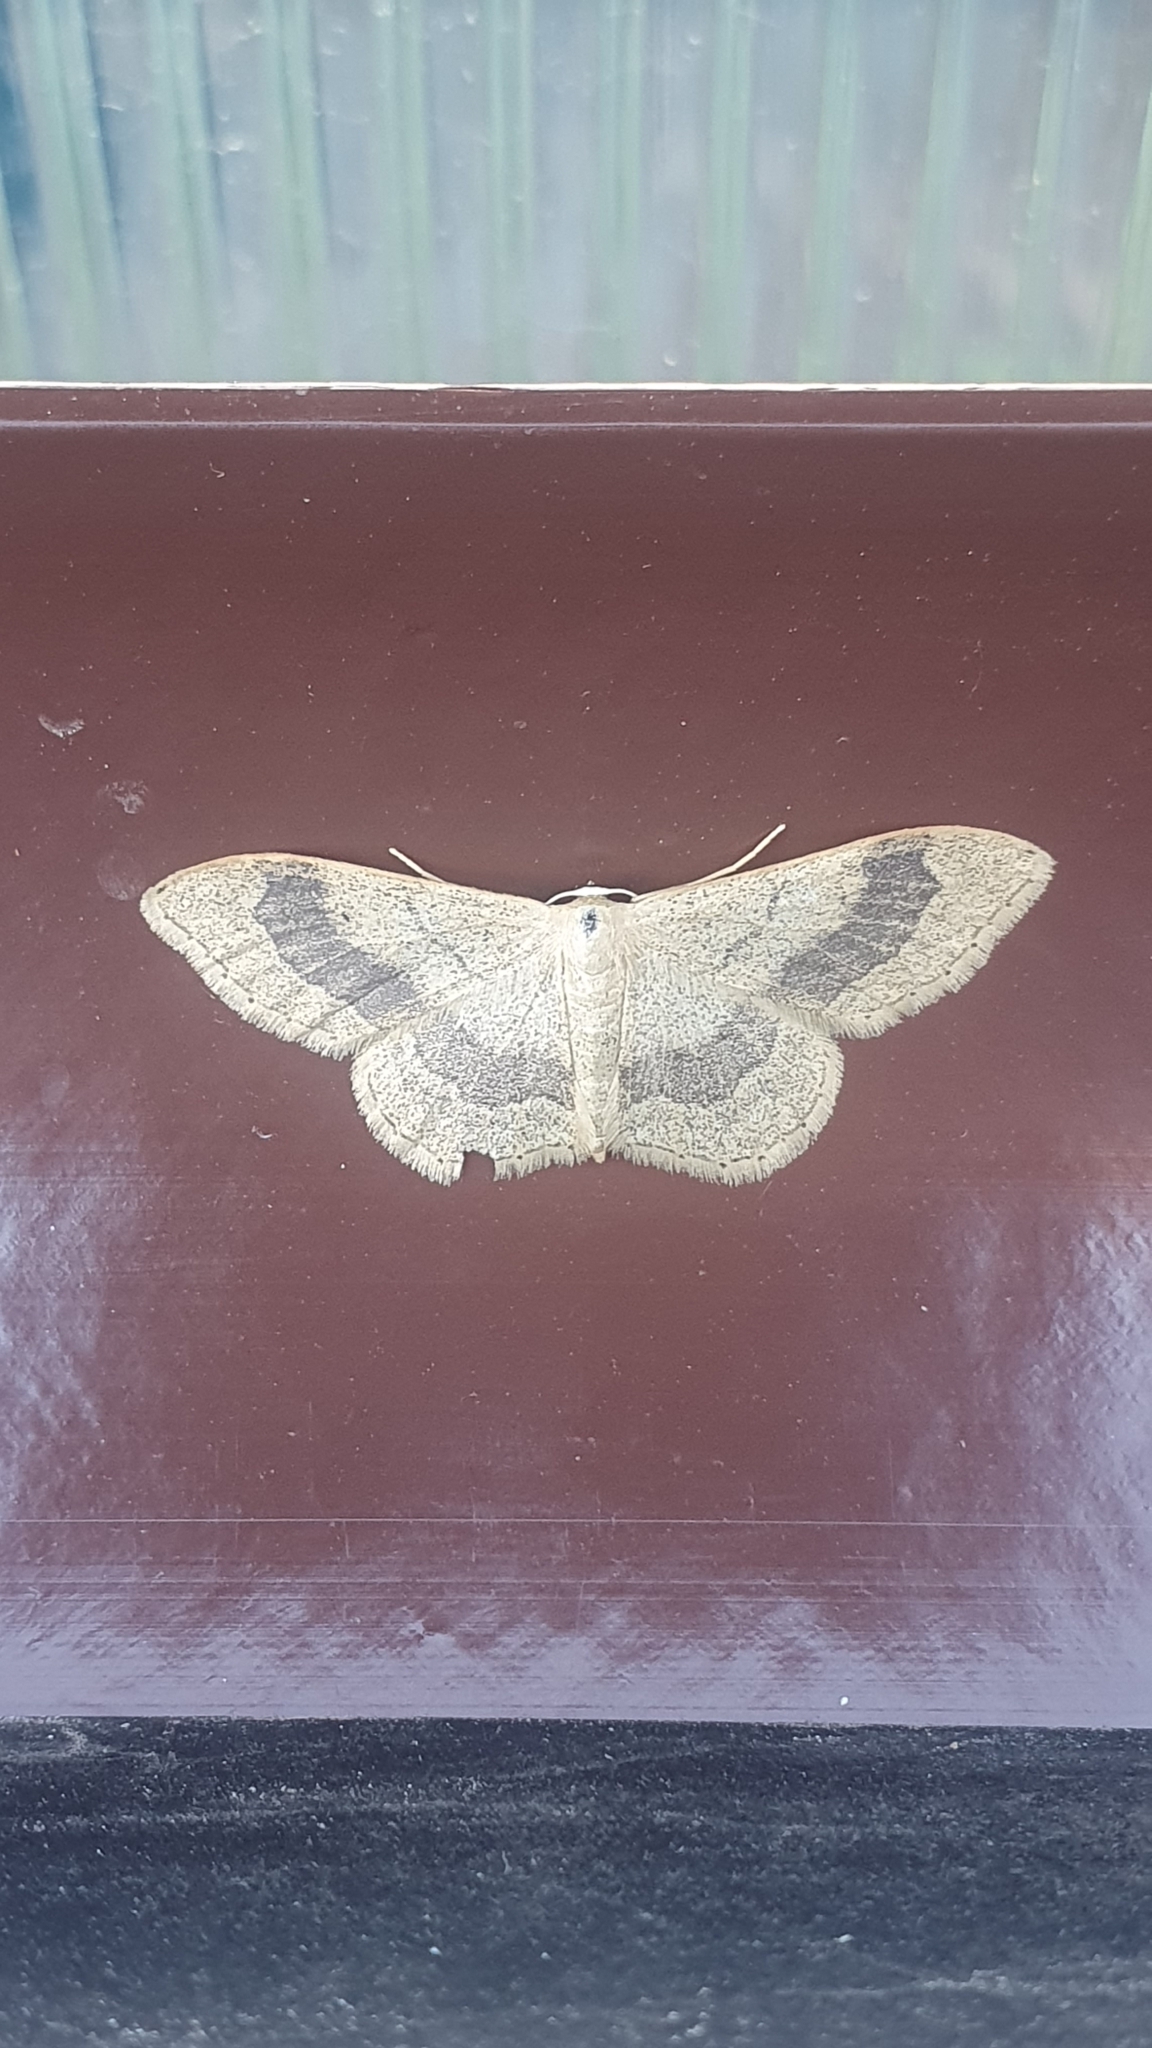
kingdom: Animalia
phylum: Arthropoda
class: Insecta
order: Lepidoptera
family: Geometridae
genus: Idaea
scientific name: Idaea aversata
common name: Riband wave
